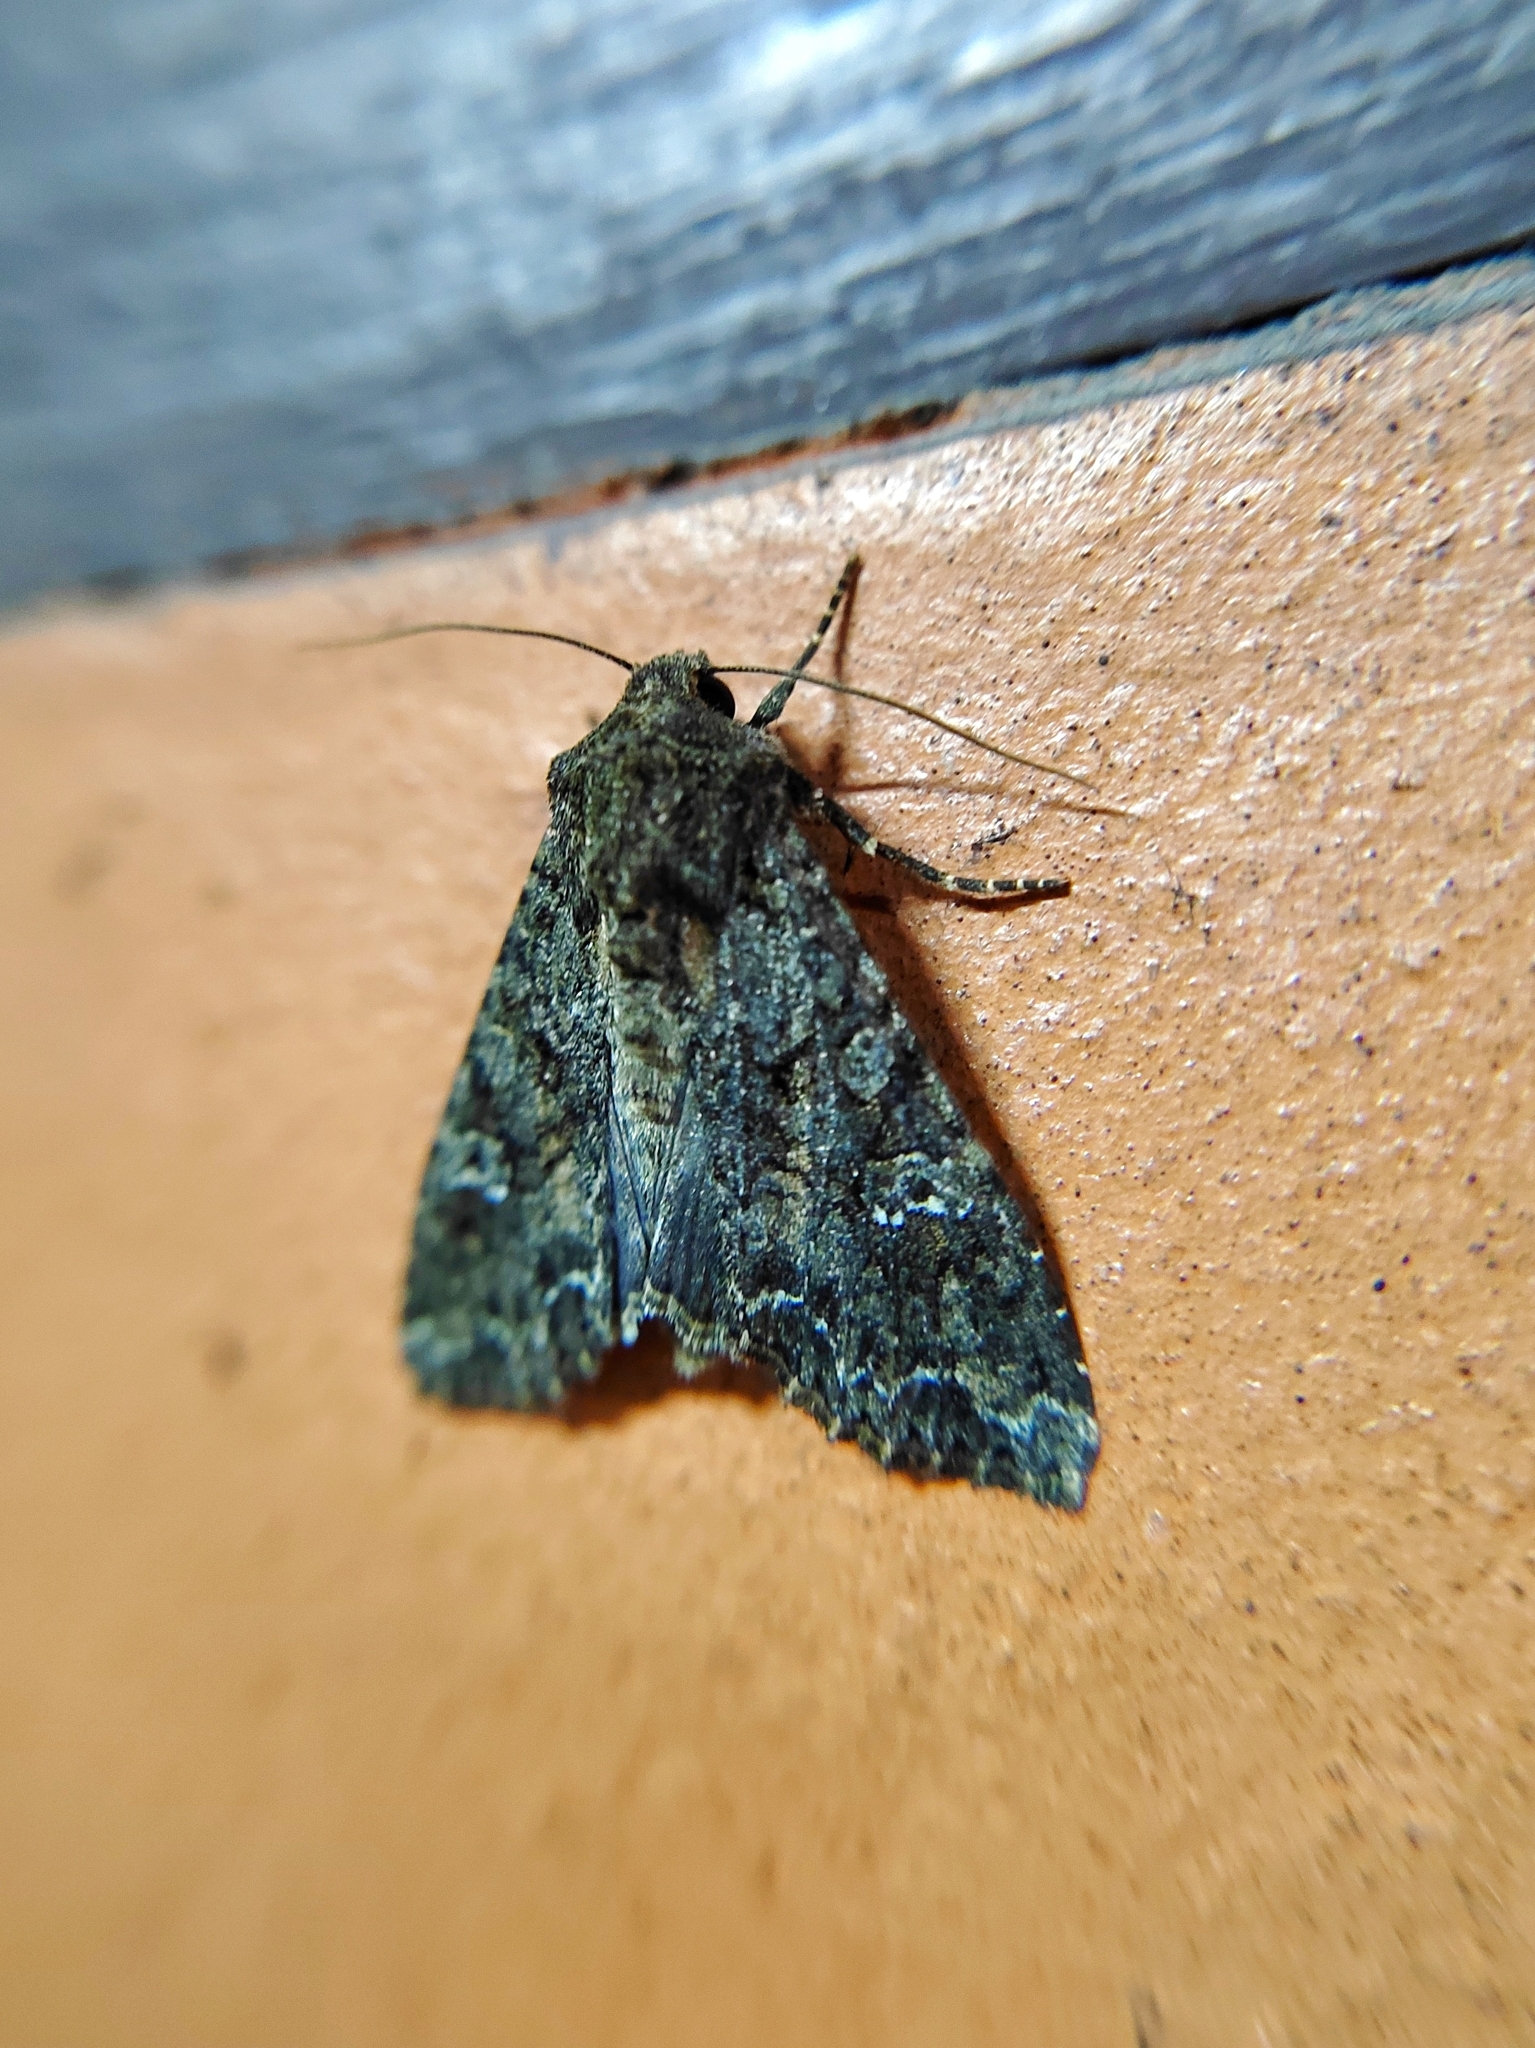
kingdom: Animalia
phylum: Arthropoda
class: Insecta
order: Lepidoptera
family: Noctuidae
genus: Mamestra
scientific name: Mamestra brassicae
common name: Cabbage moth
